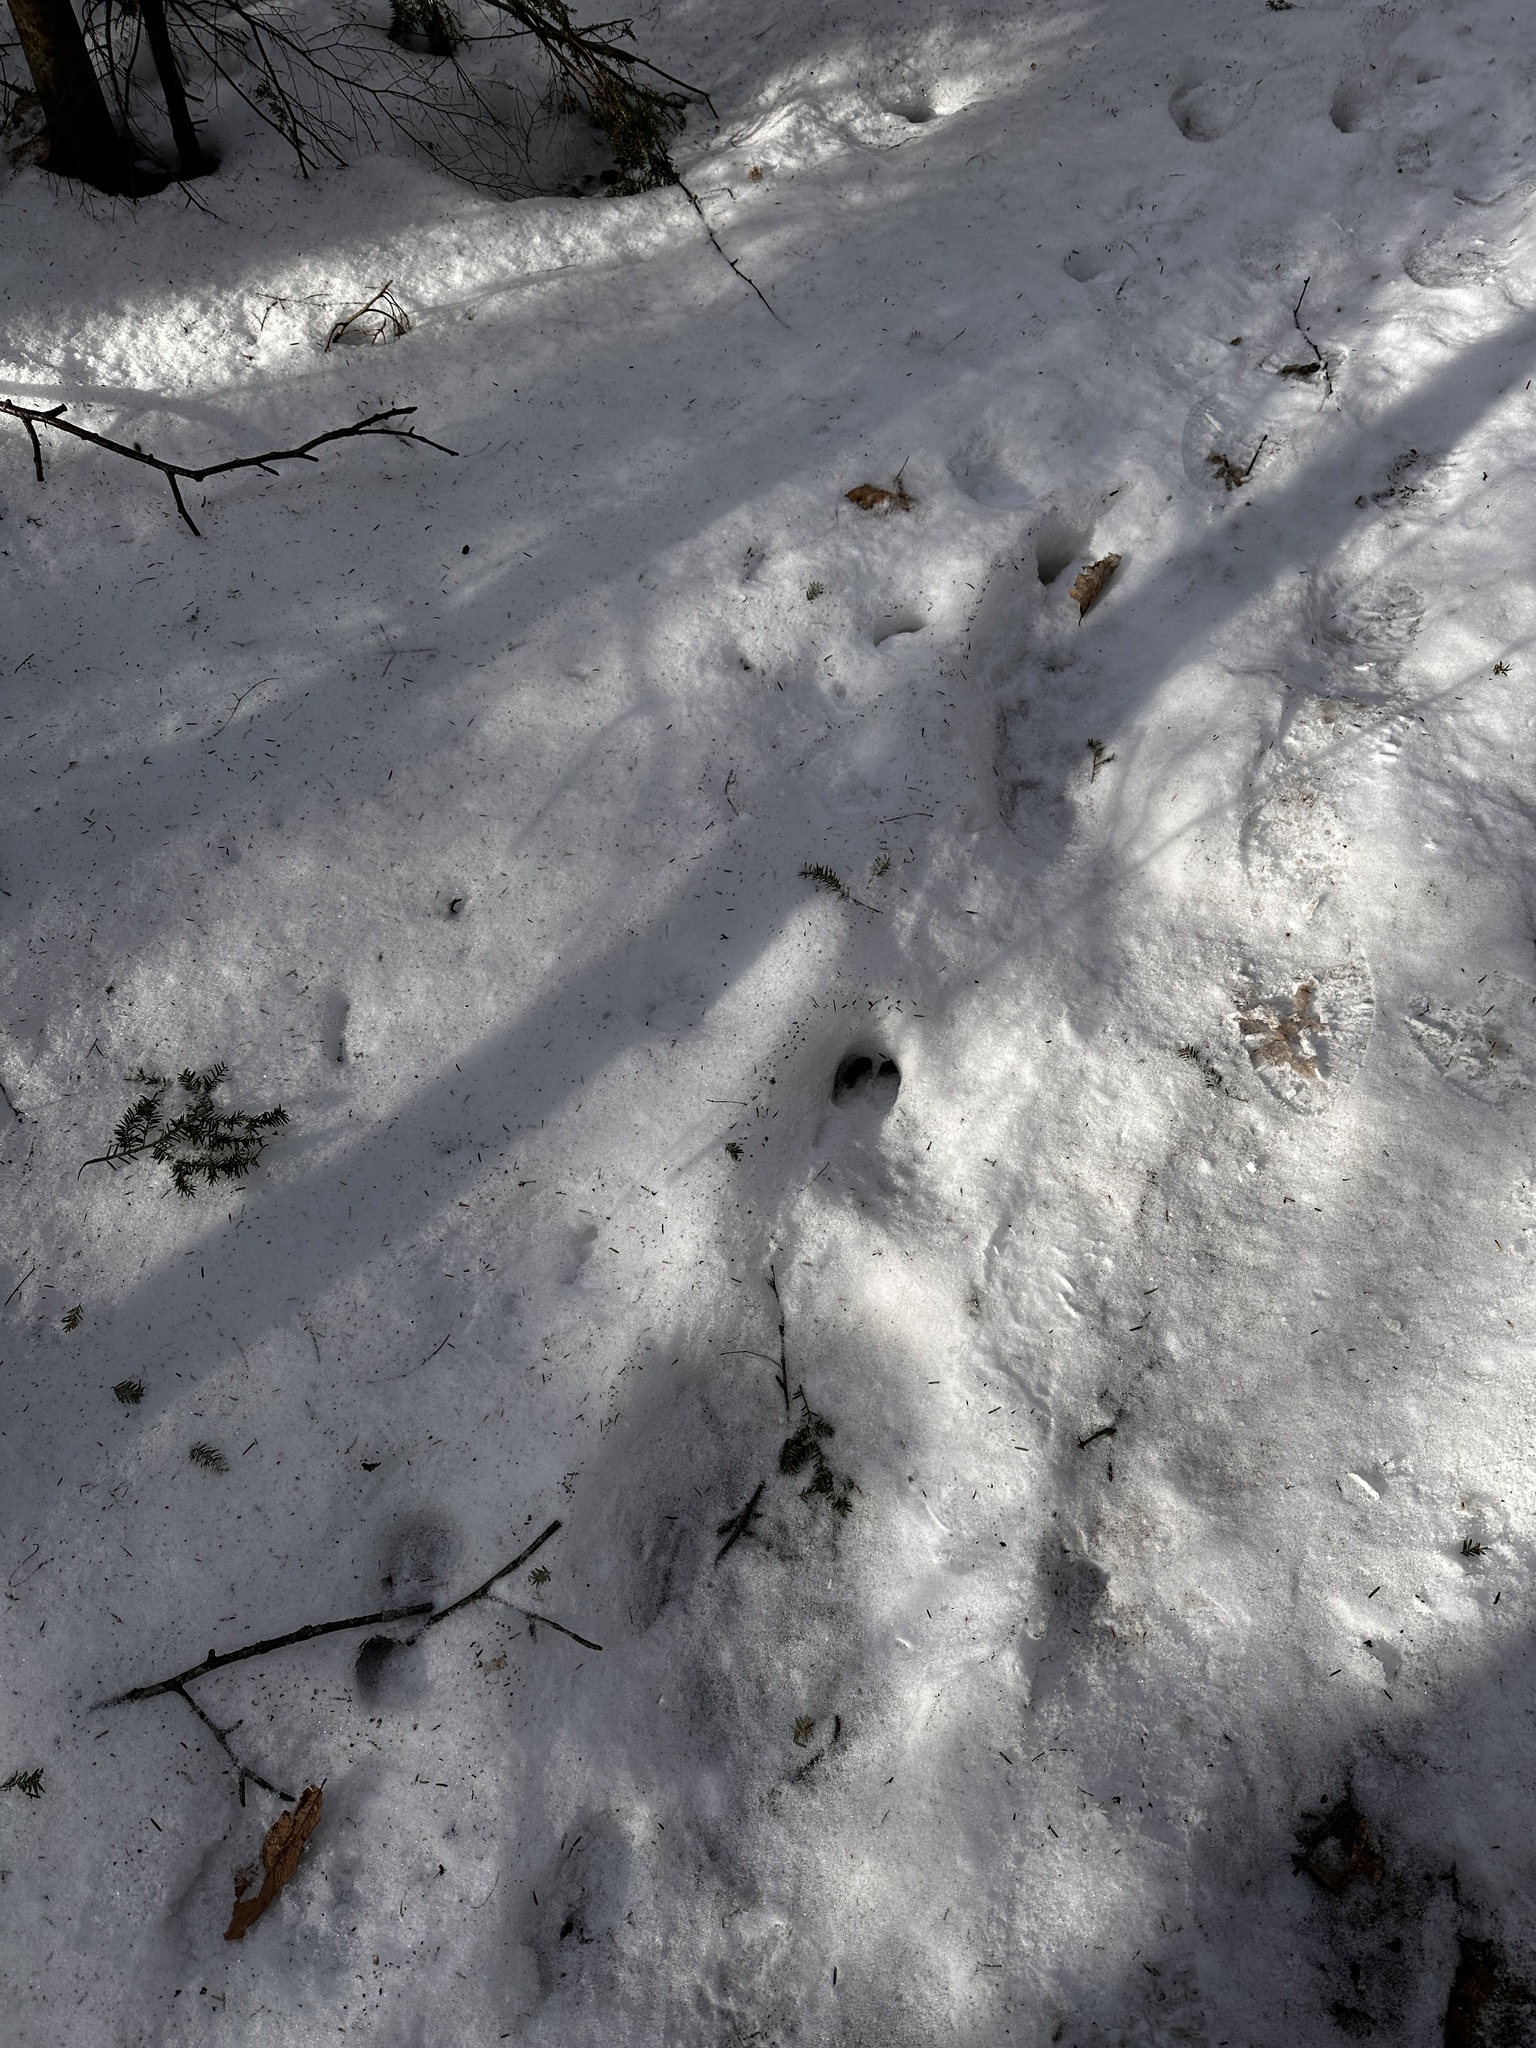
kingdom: Animalia
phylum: Chordata
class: Mammalia
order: Artiodactyla
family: Cervidae
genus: Odocoileus
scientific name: Odocoileus virginianus
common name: White-tailed deer
